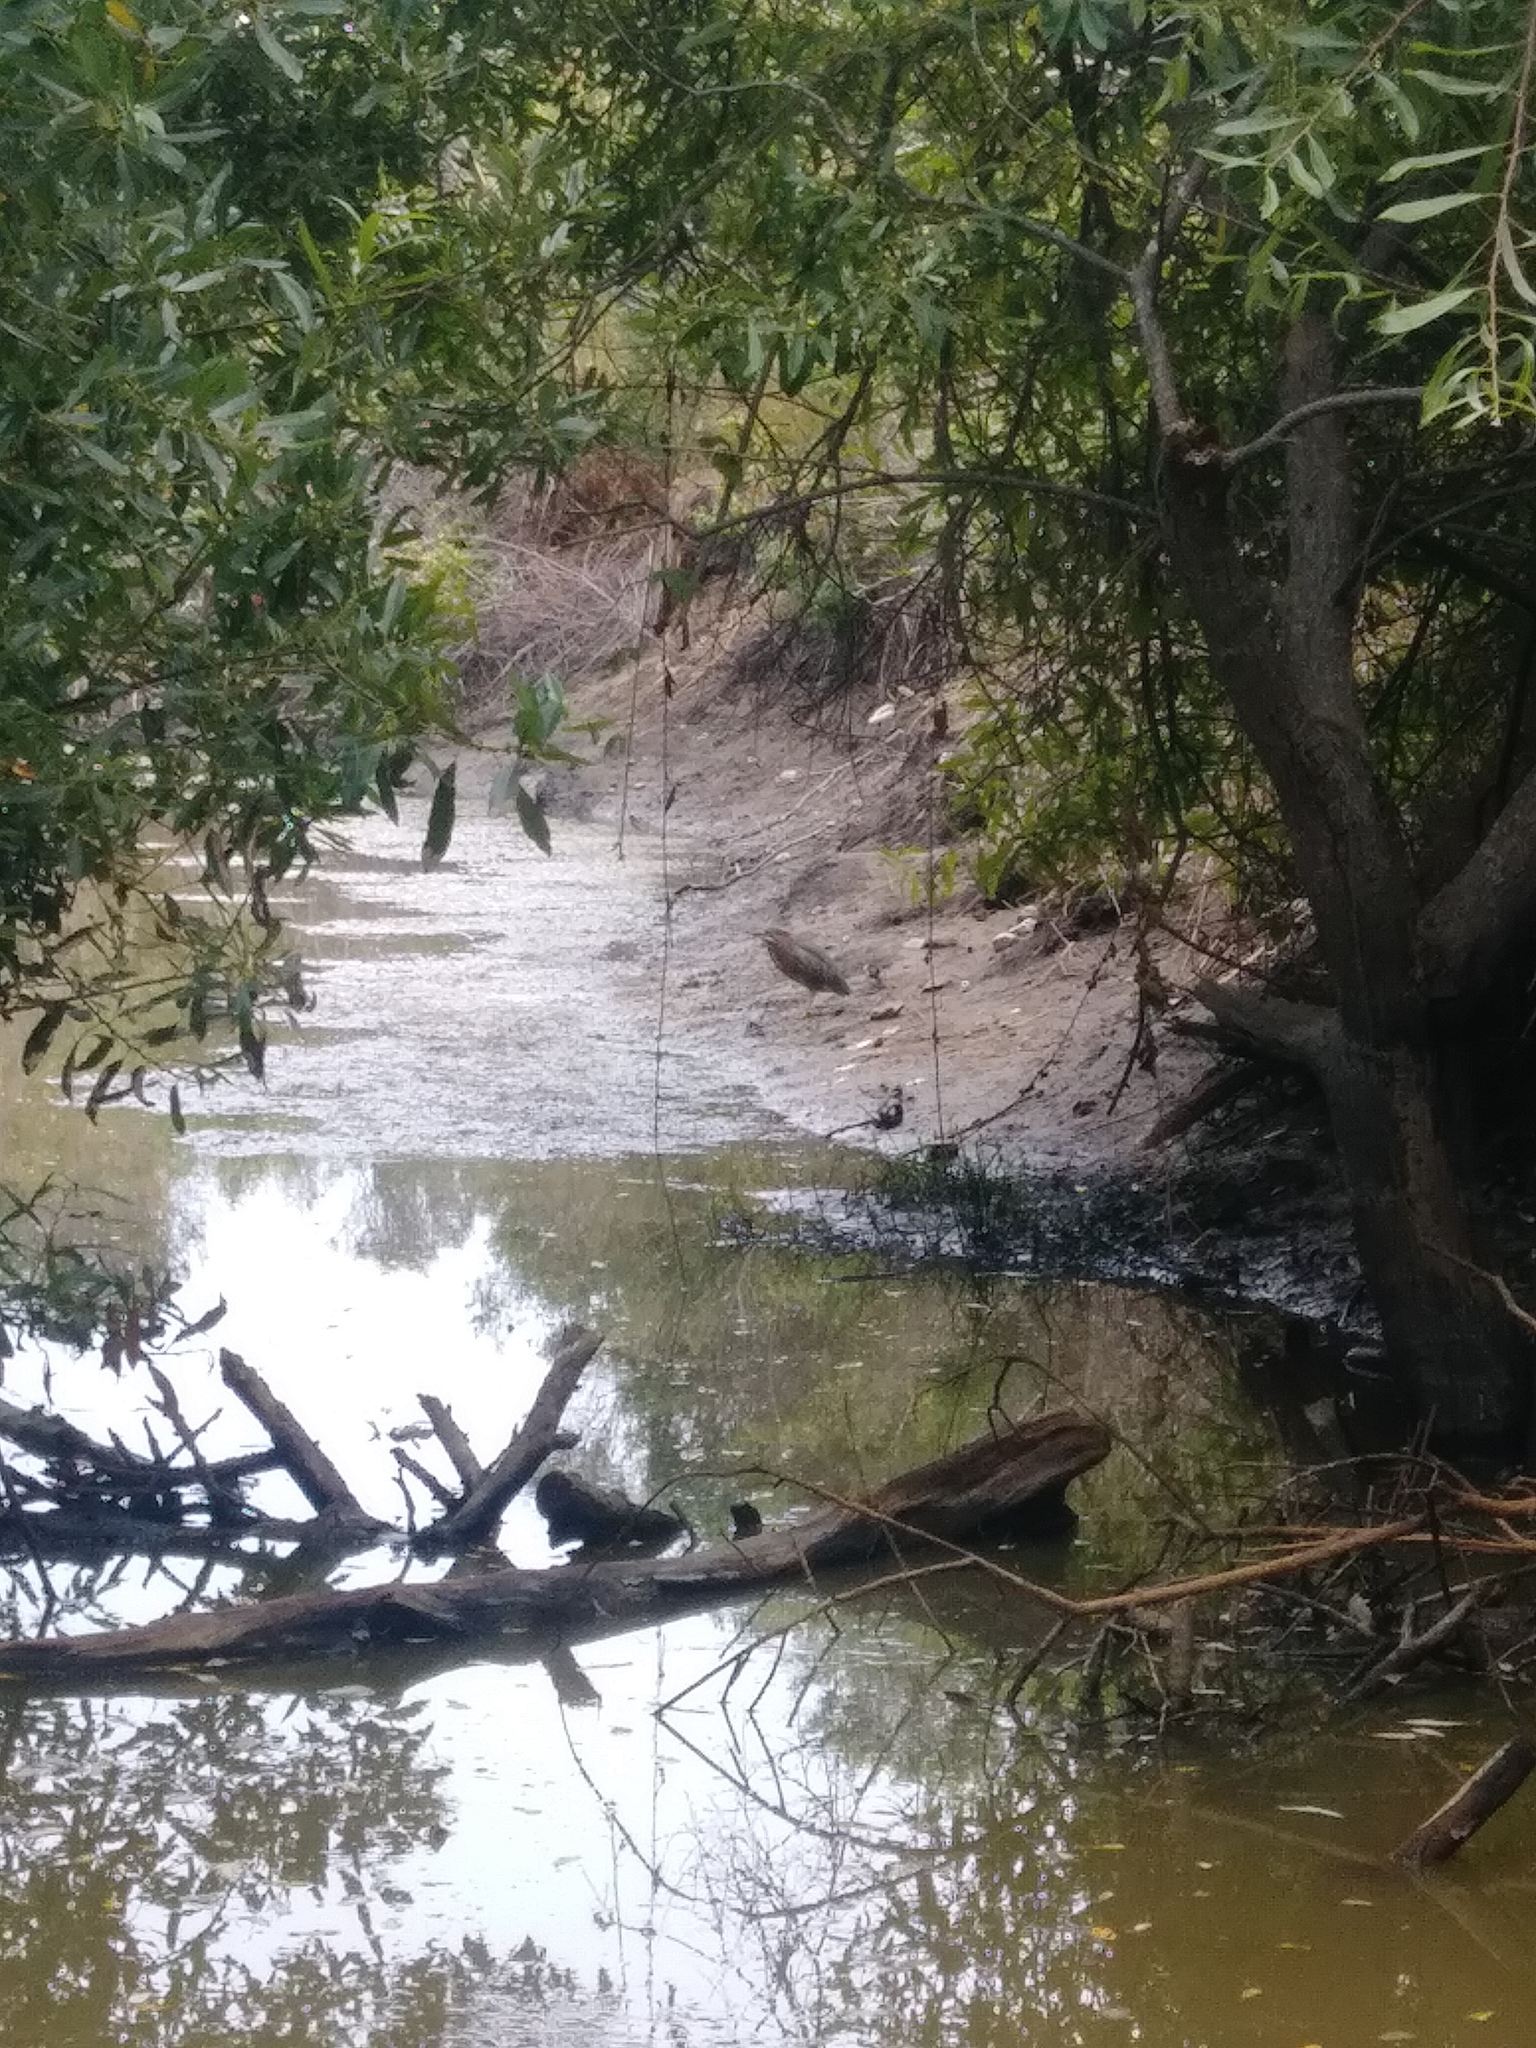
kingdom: Animalia
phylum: Chordata
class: Aves
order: Pelecaniformes
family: Ardeidae
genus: Butorides
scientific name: Butorides virescens
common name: Green heron
